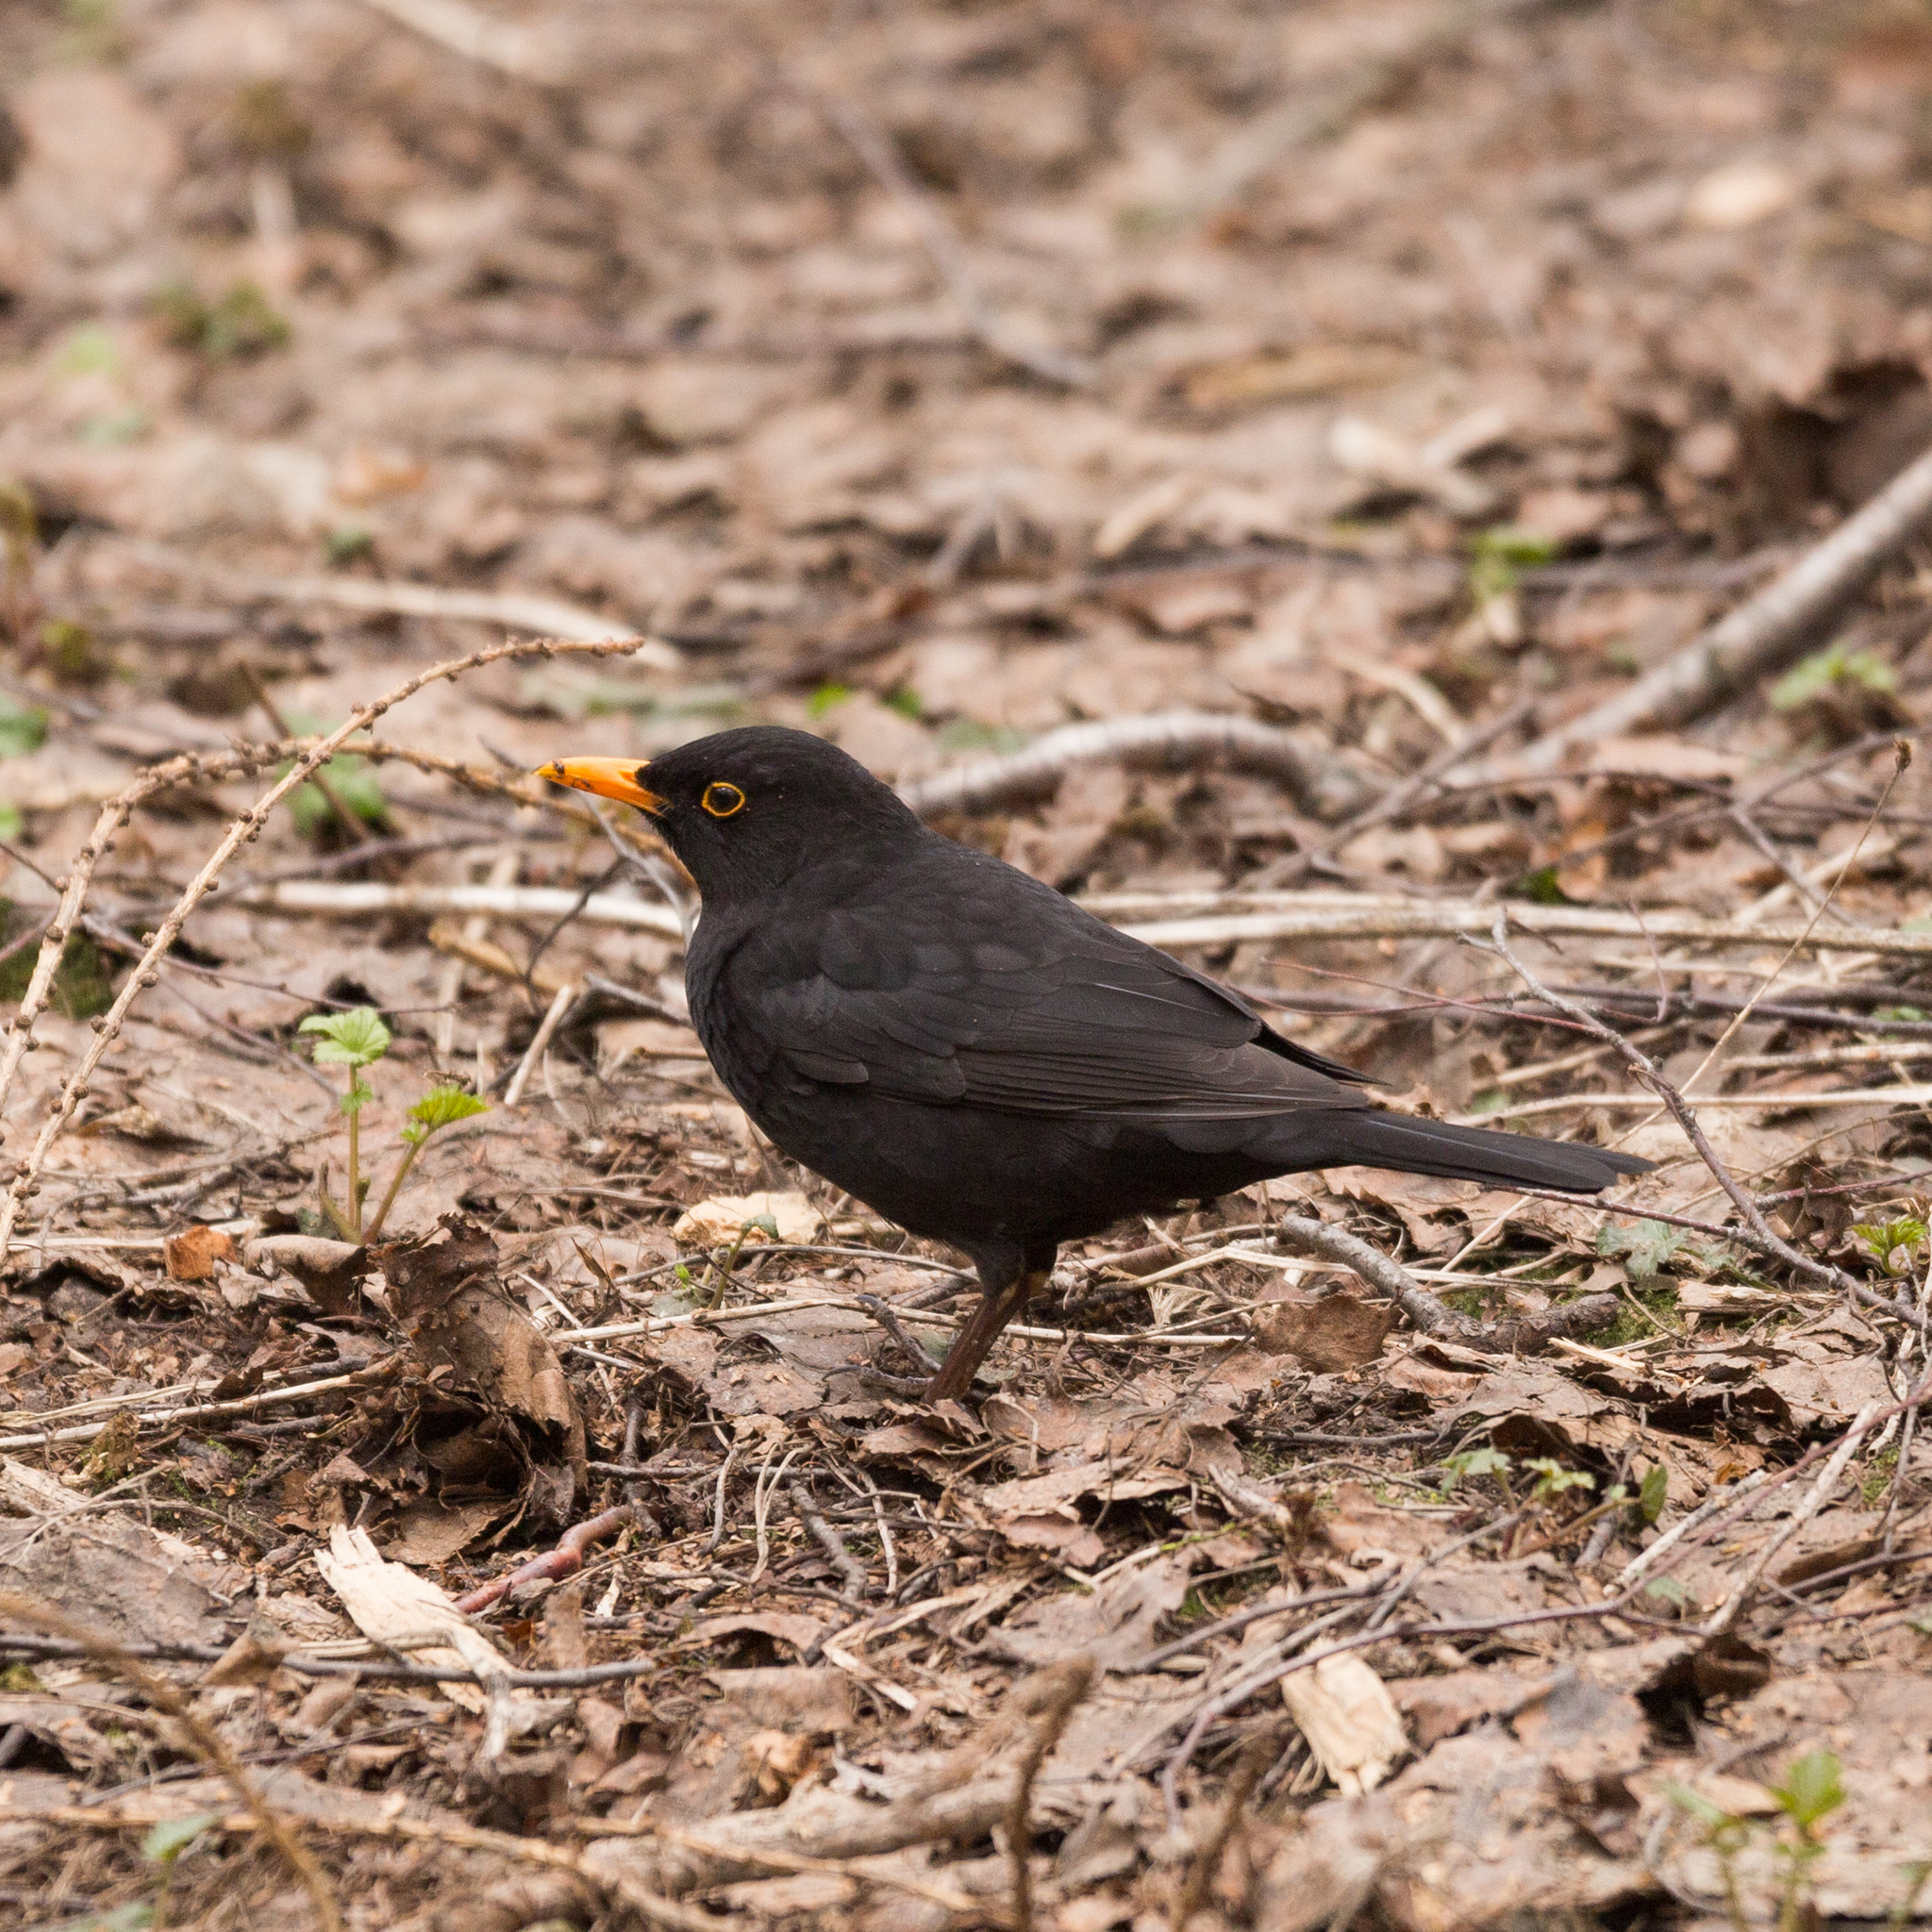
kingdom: Animalia
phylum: Chordata
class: Aves
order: Passeriformes
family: Turdidae
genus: Turdus
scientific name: Turdus merula
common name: Common blackbird
